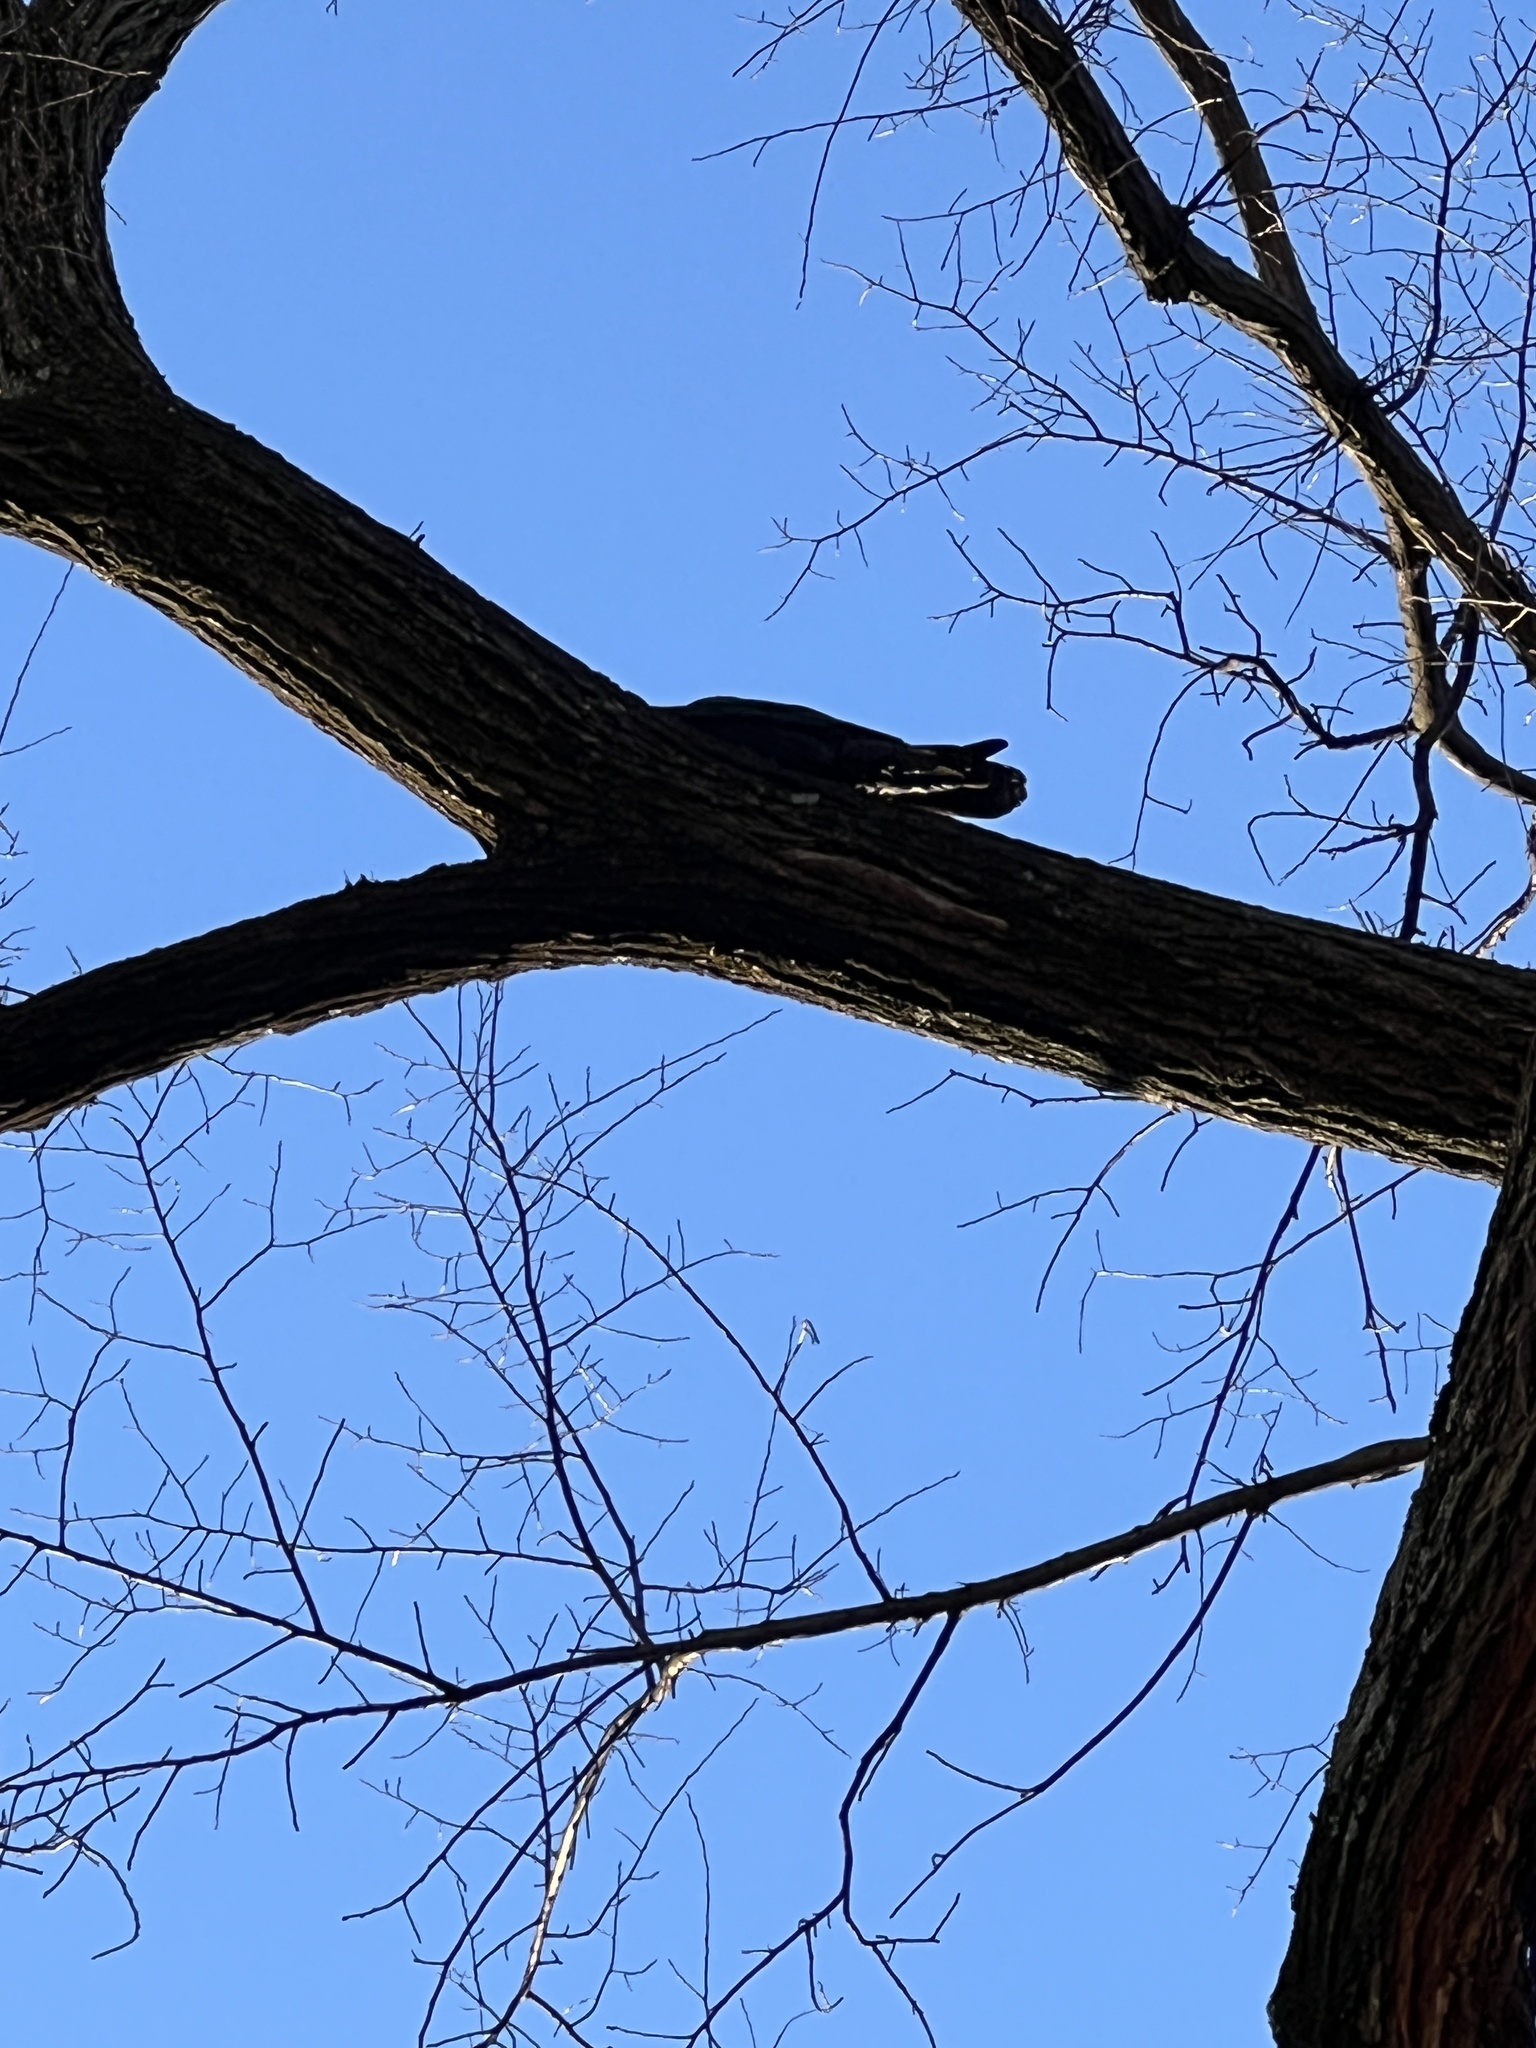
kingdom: Animalia
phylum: Chordata
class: Aves
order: Passeriformes
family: Corvidae
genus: Corvus
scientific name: Corvus corax
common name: Common raven
